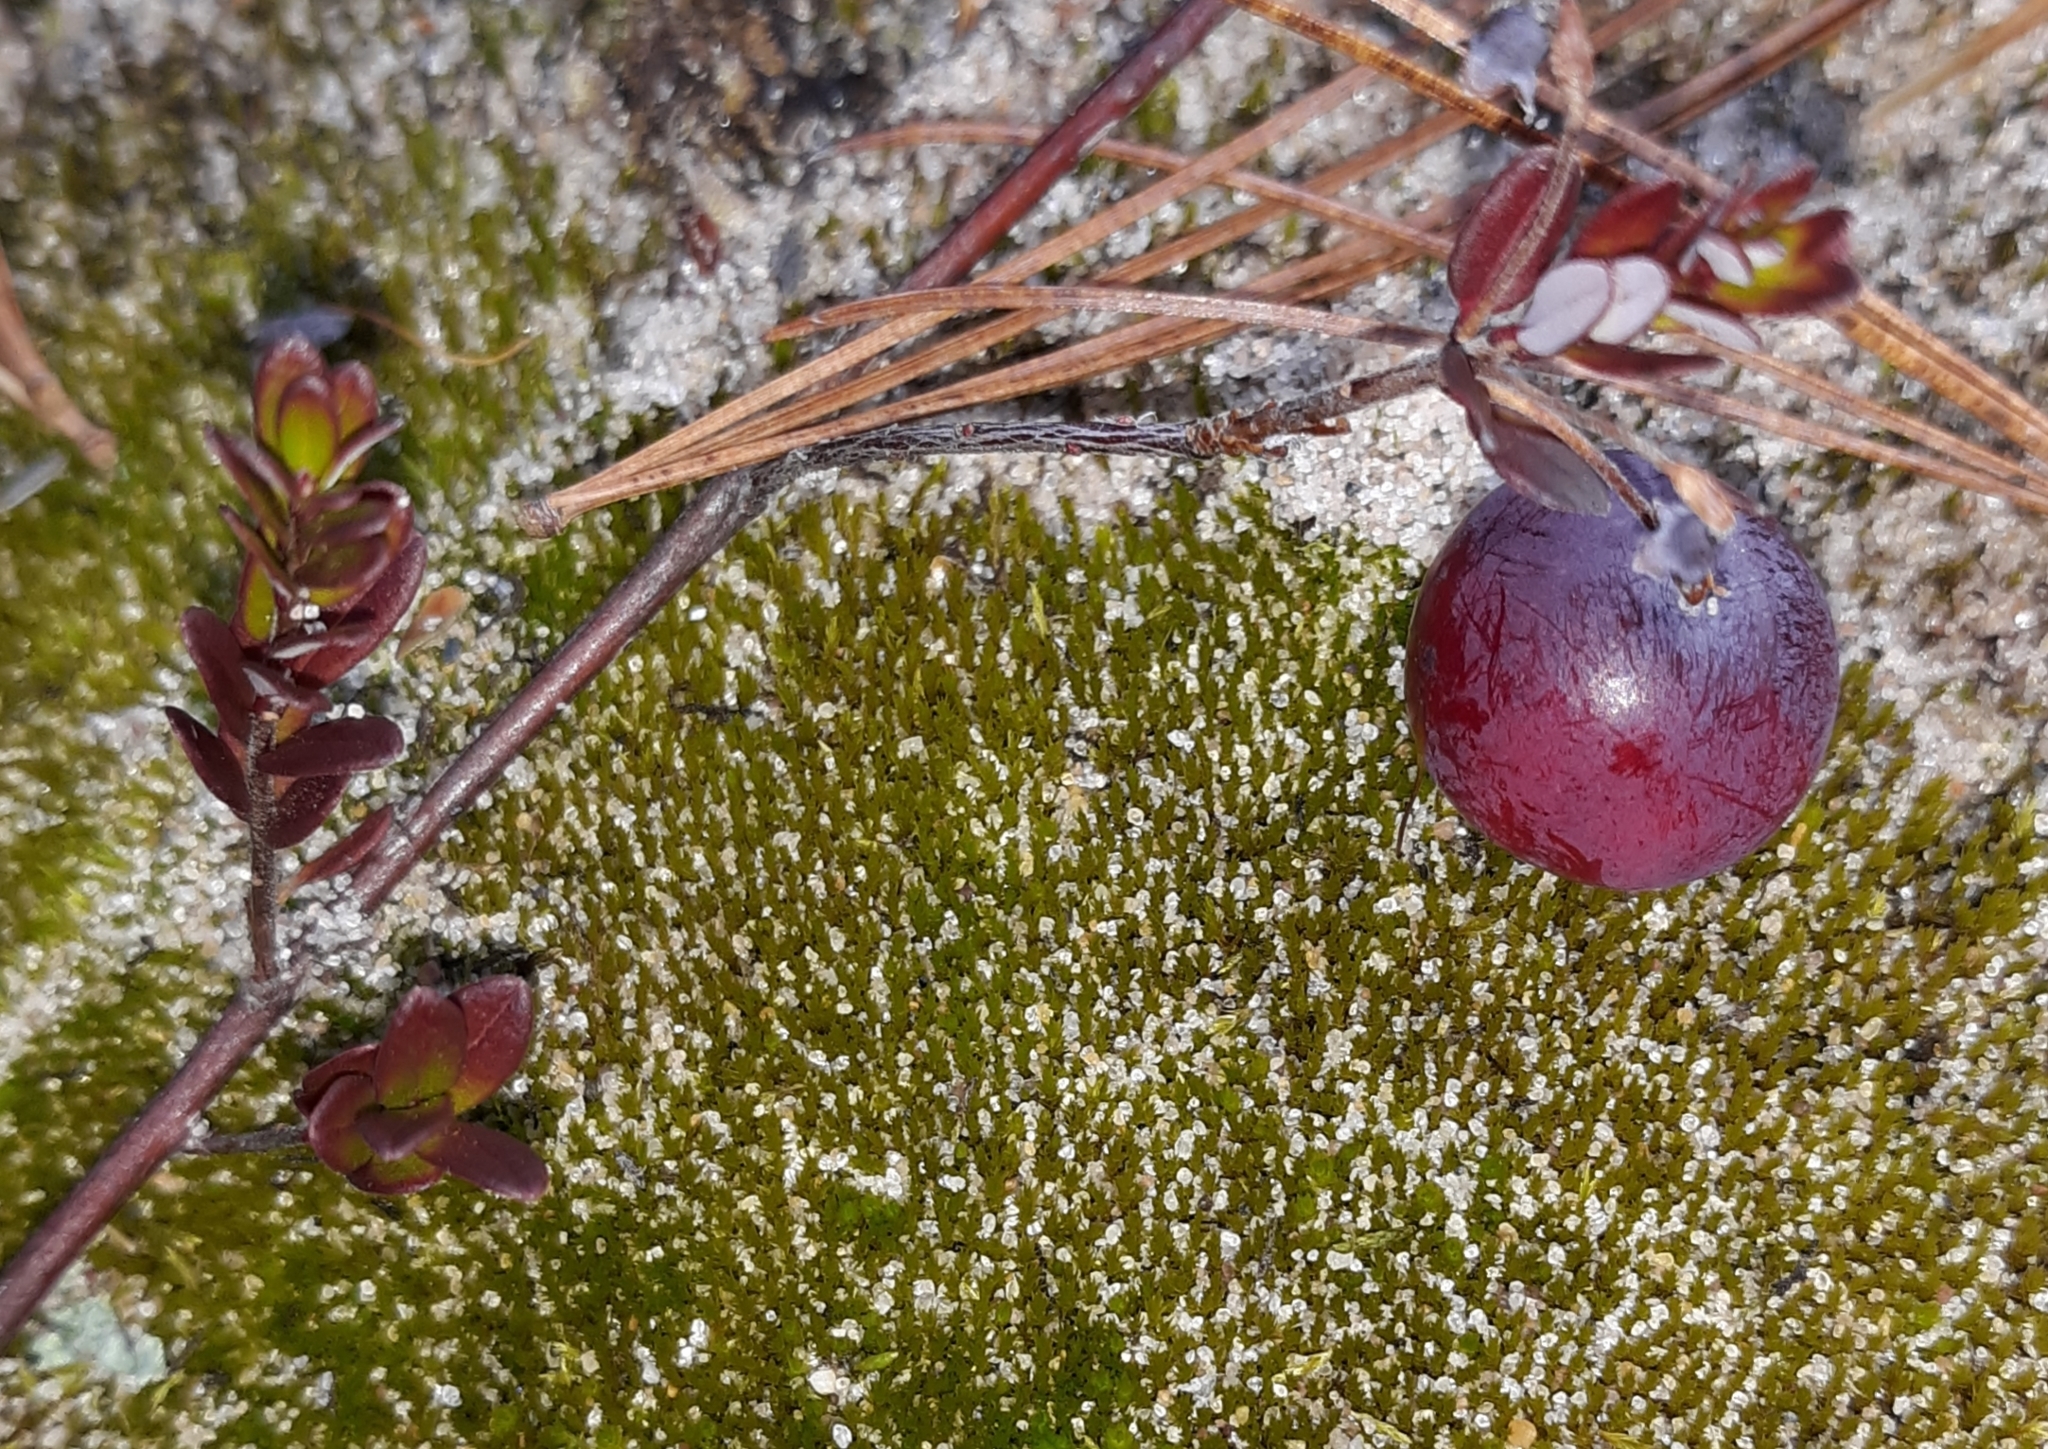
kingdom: Plantae
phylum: Tracheophyta
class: Magnoliopsida
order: Ericales
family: Ericaceae
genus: Vaccinium
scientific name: Vaccinium oxycoccos
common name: Cranberry
